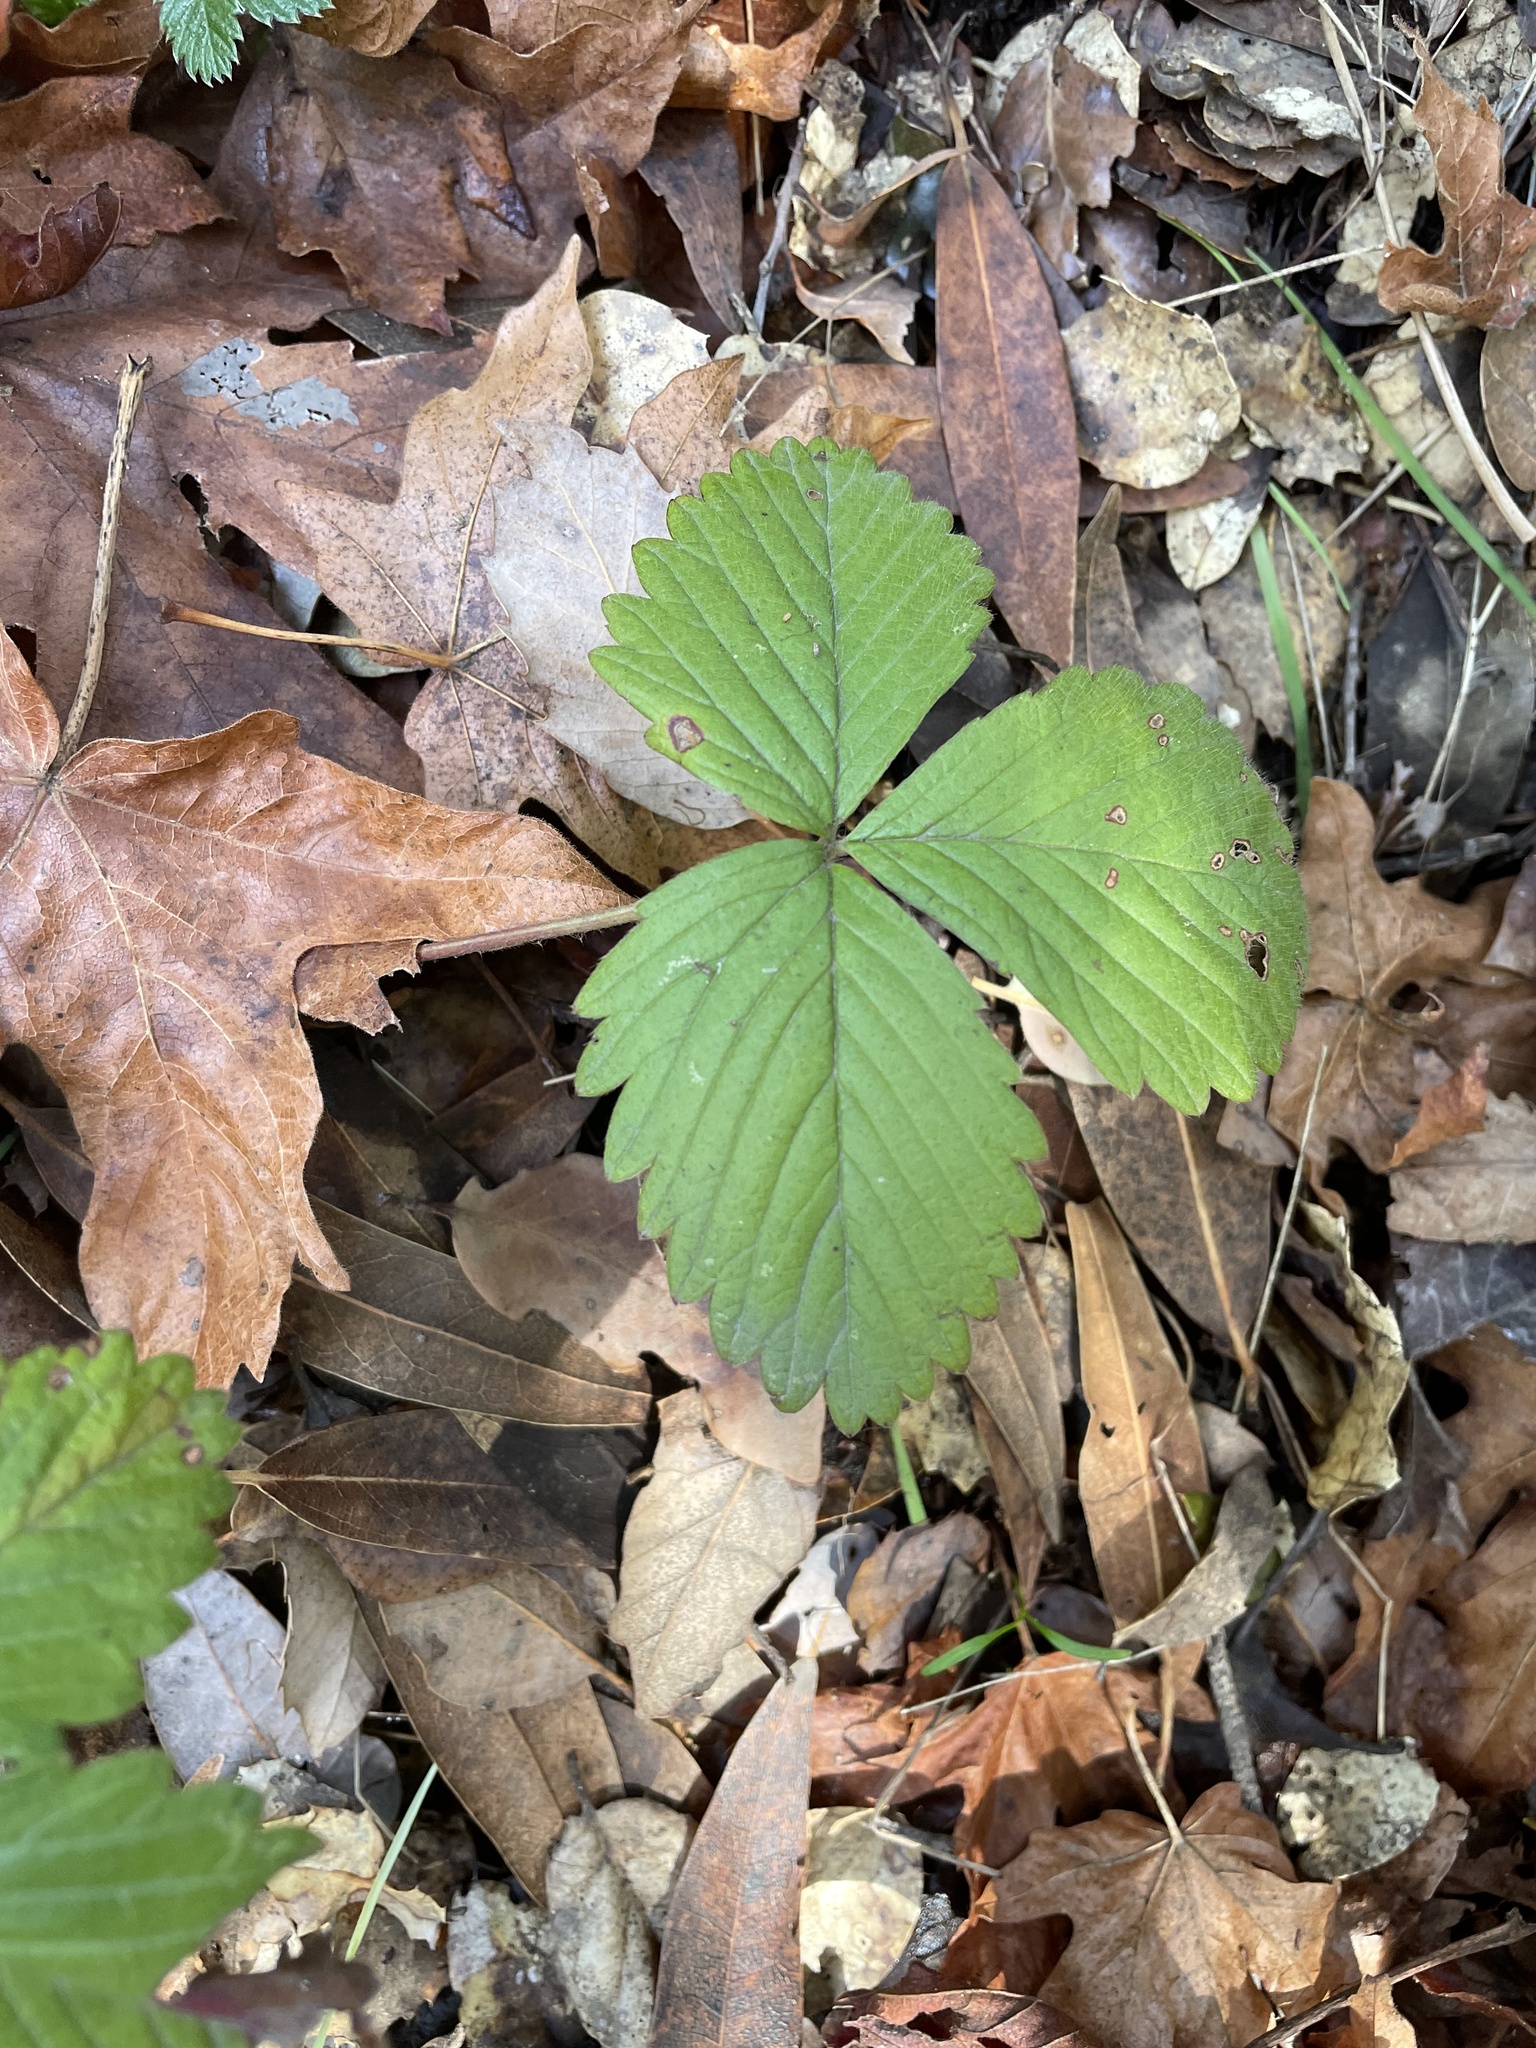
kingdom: Plantae
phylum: Tracheophyta
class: Magnoliopsida
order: Rosales
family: Rosaceae
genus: Fragaria
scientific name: Fragaria vesca
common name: Wild strawberry
